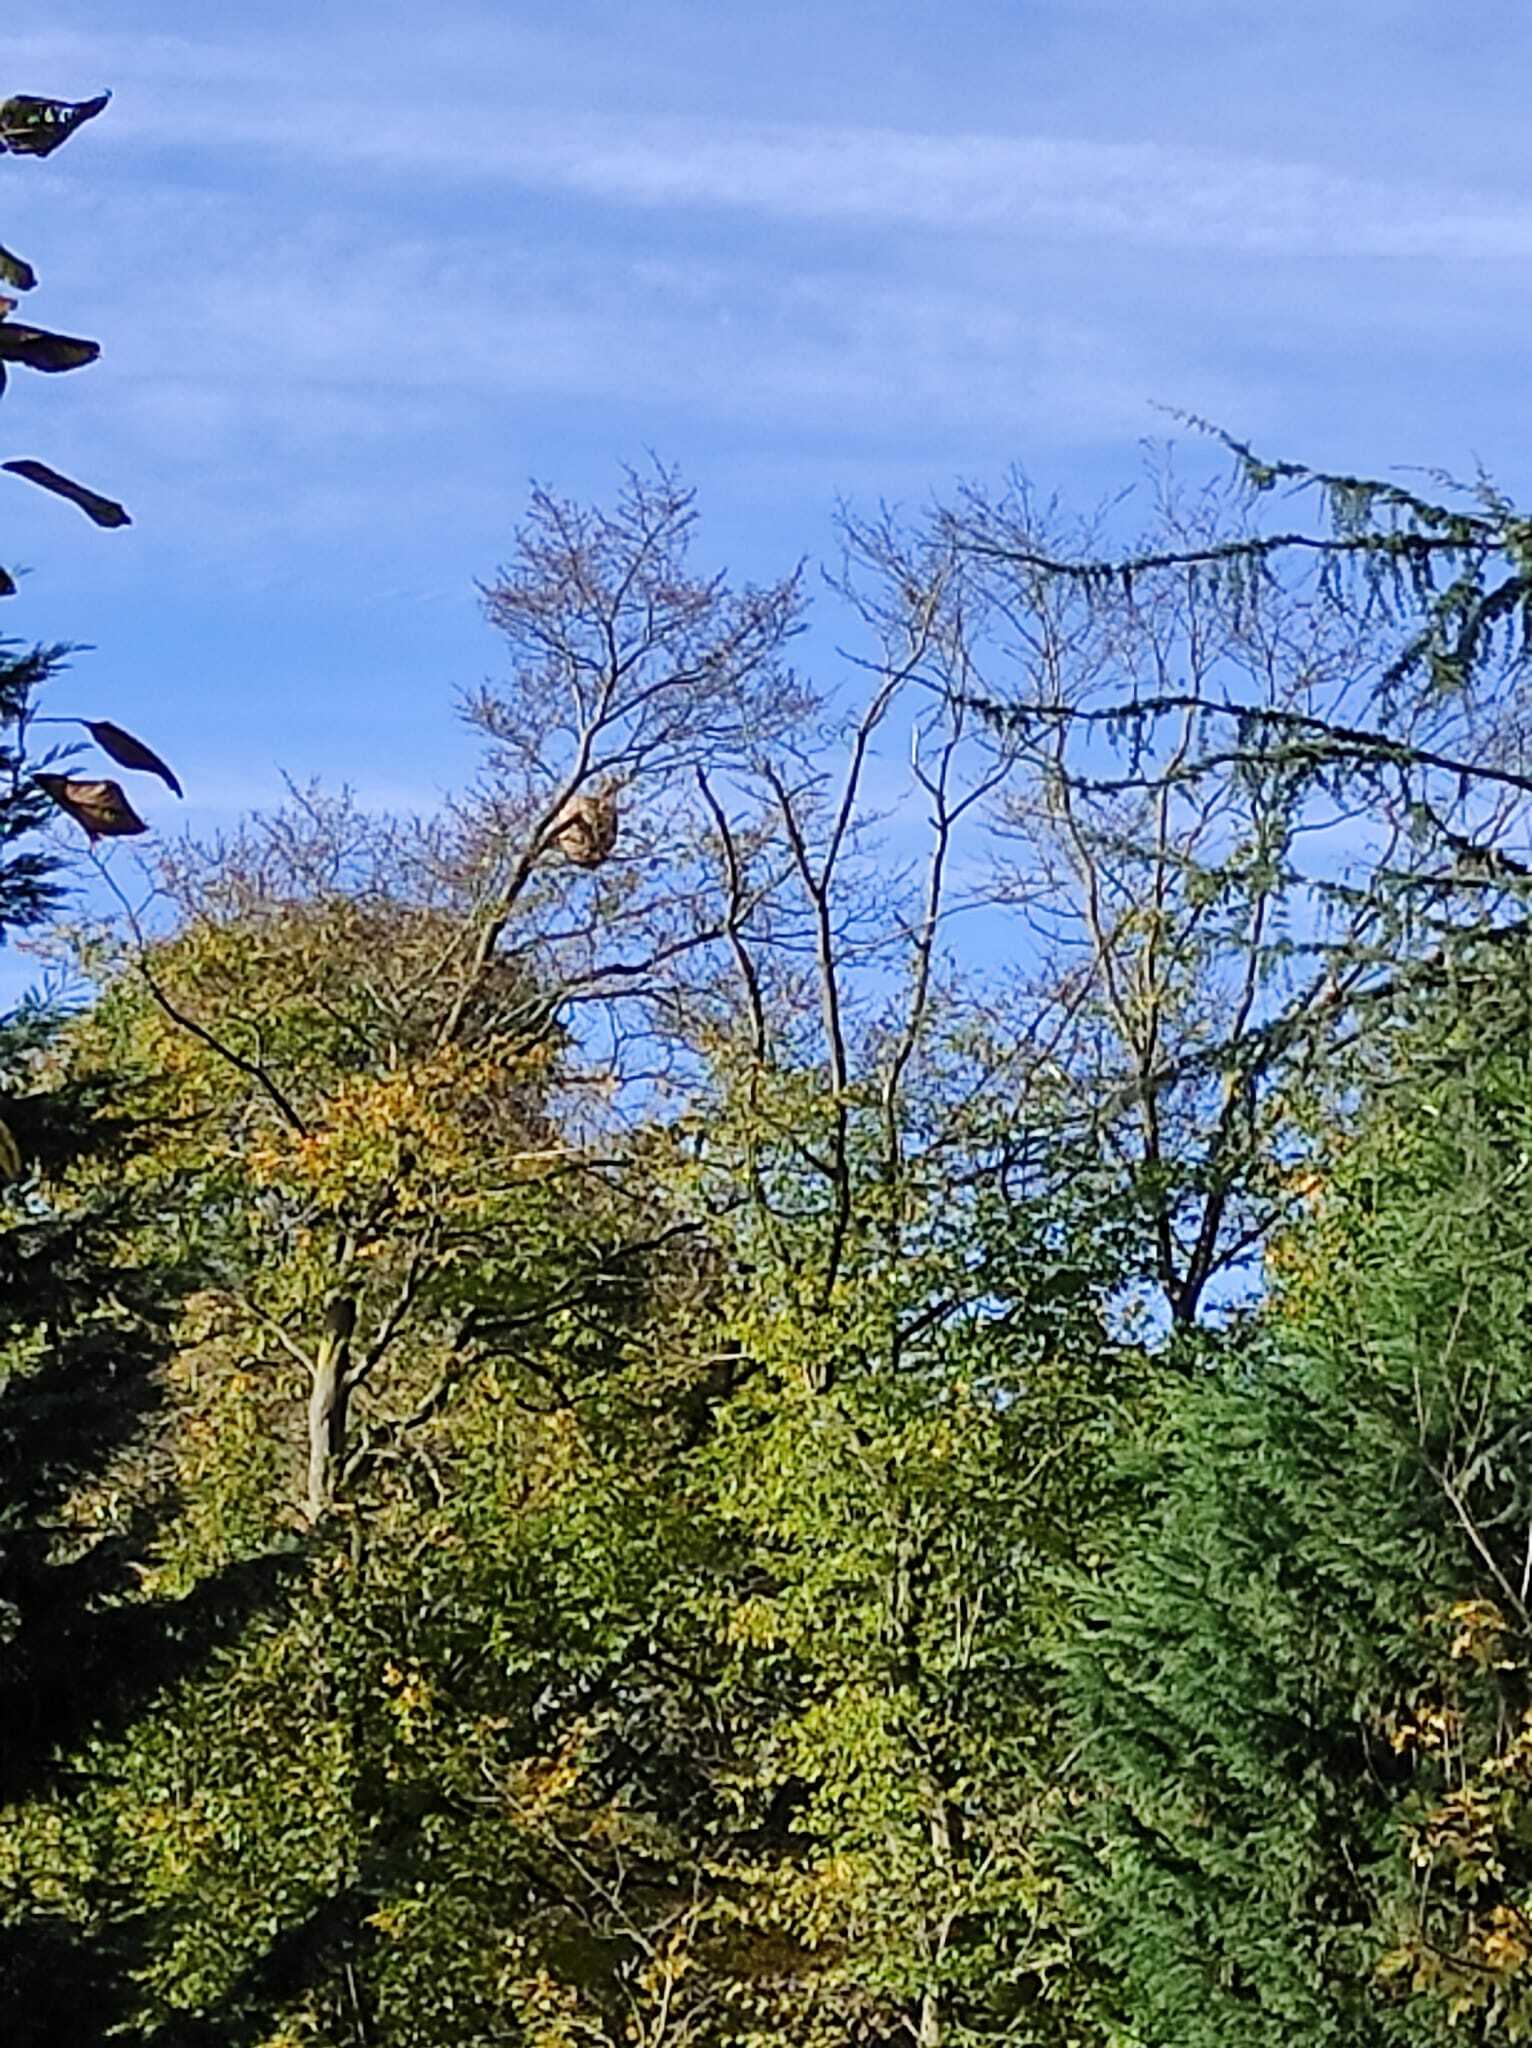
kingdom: Animalia
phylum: Arthropoda
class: Insecta
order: Hymenoptera
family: Vespidae
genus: Vespa
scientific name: Vespa velutina
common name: Asian hornet
